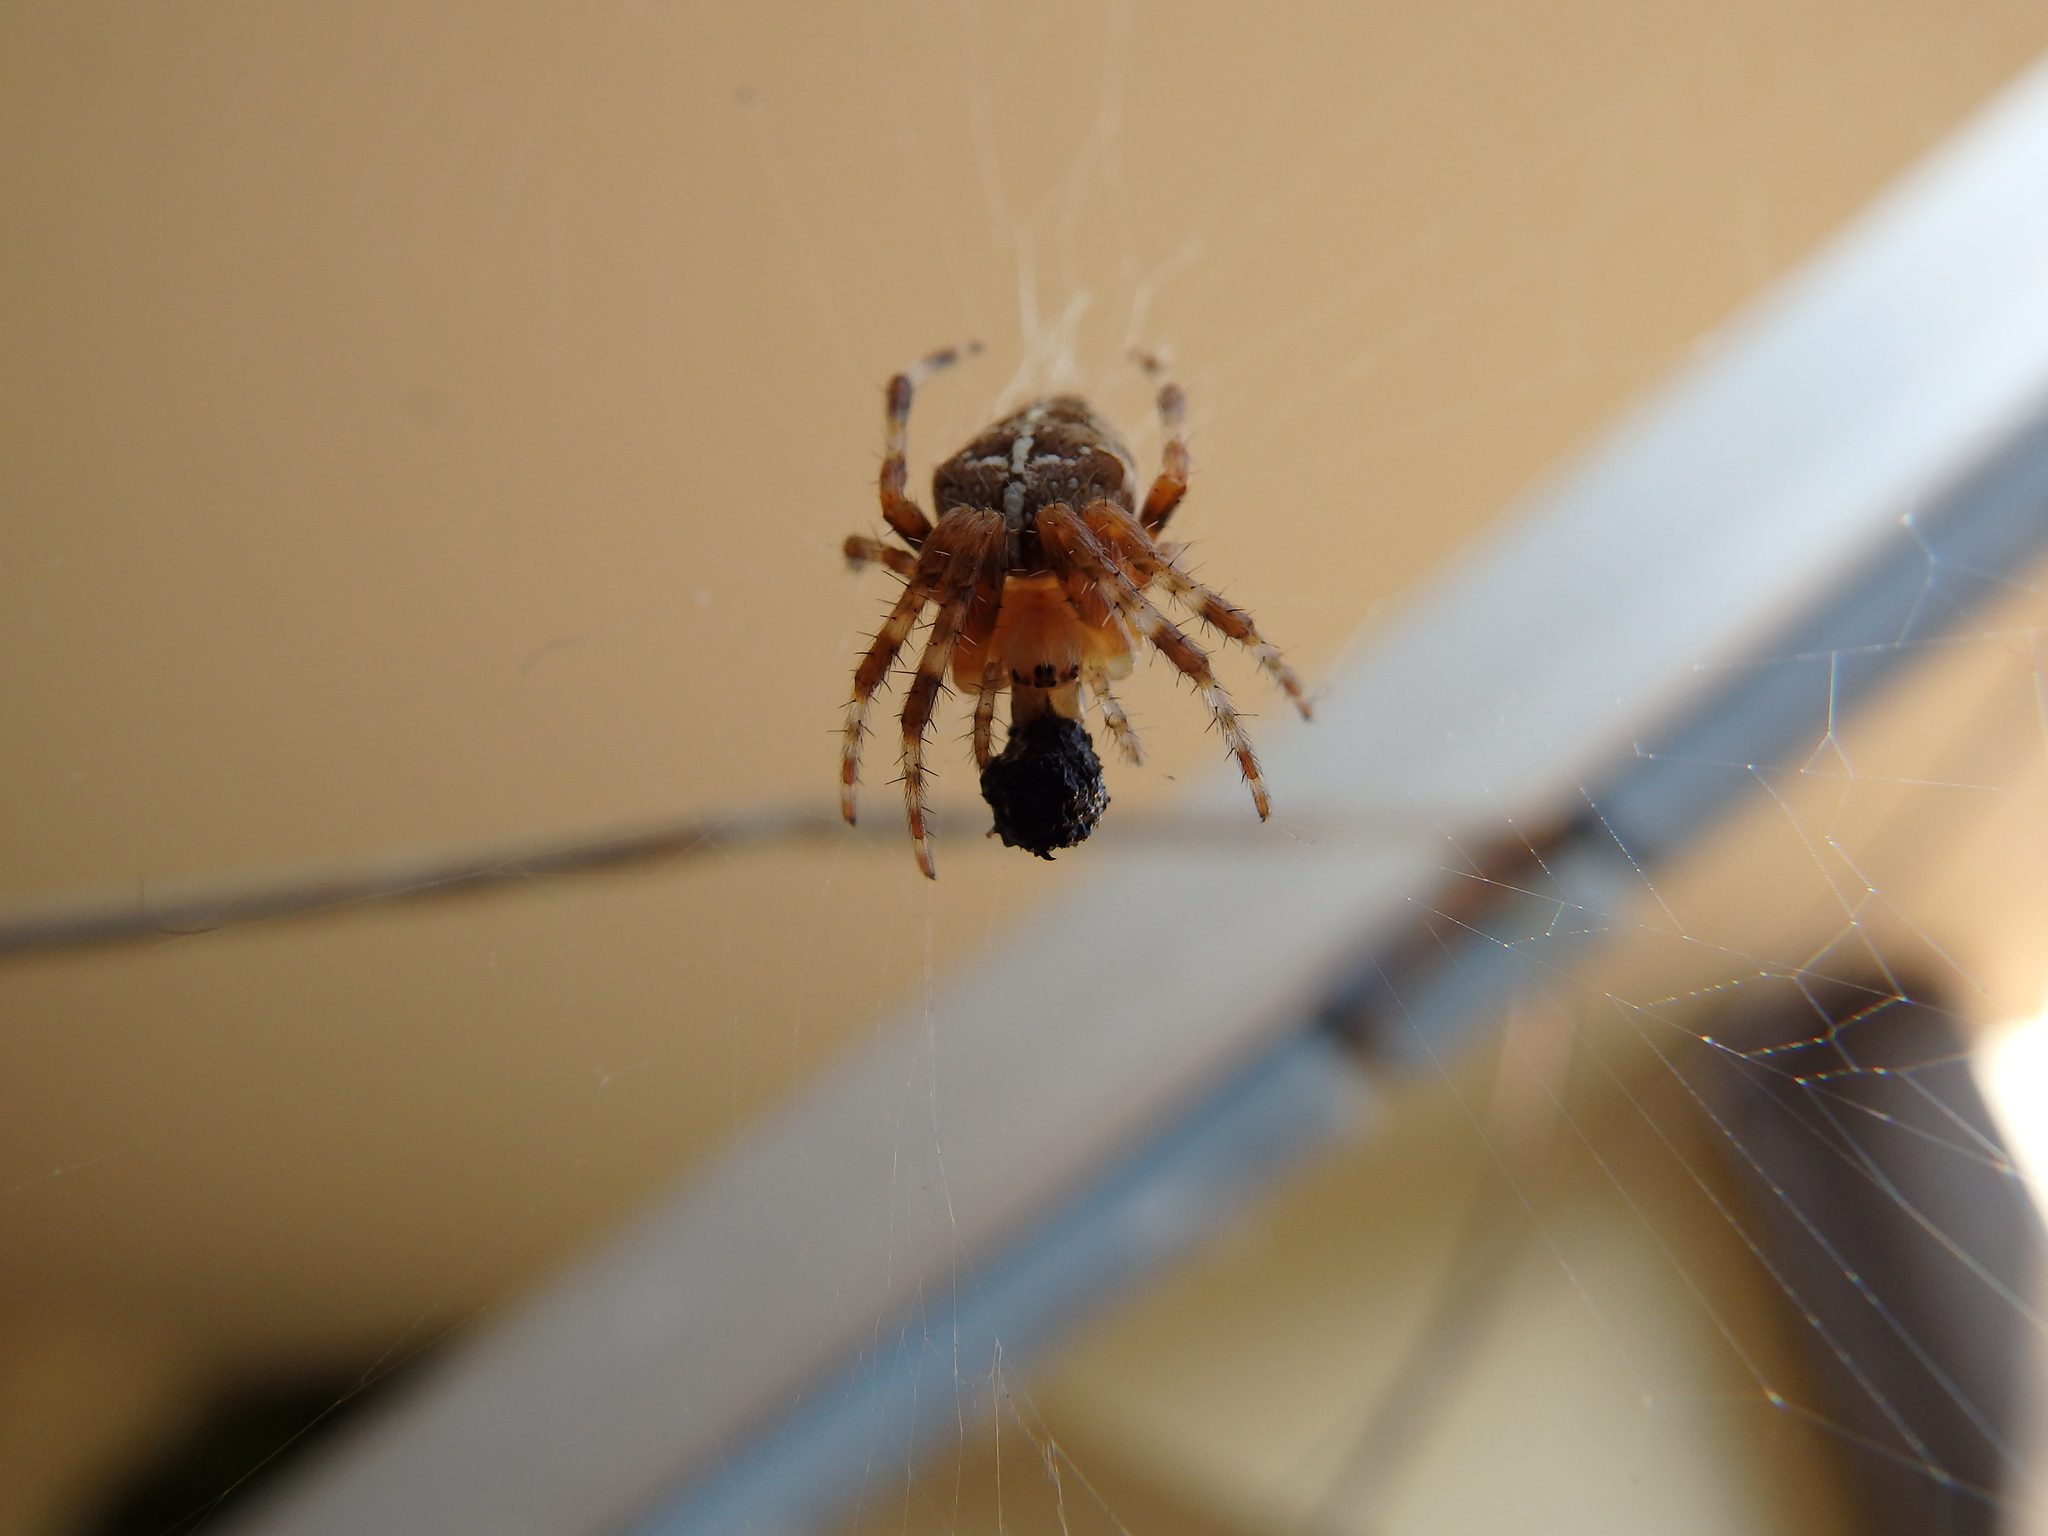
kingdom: Animalia
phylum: Arthropoda
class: Arachnida
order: Araneae
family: Araneidae
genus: Araneus
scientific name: Araneus diadematus
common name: Cross orbweaver
